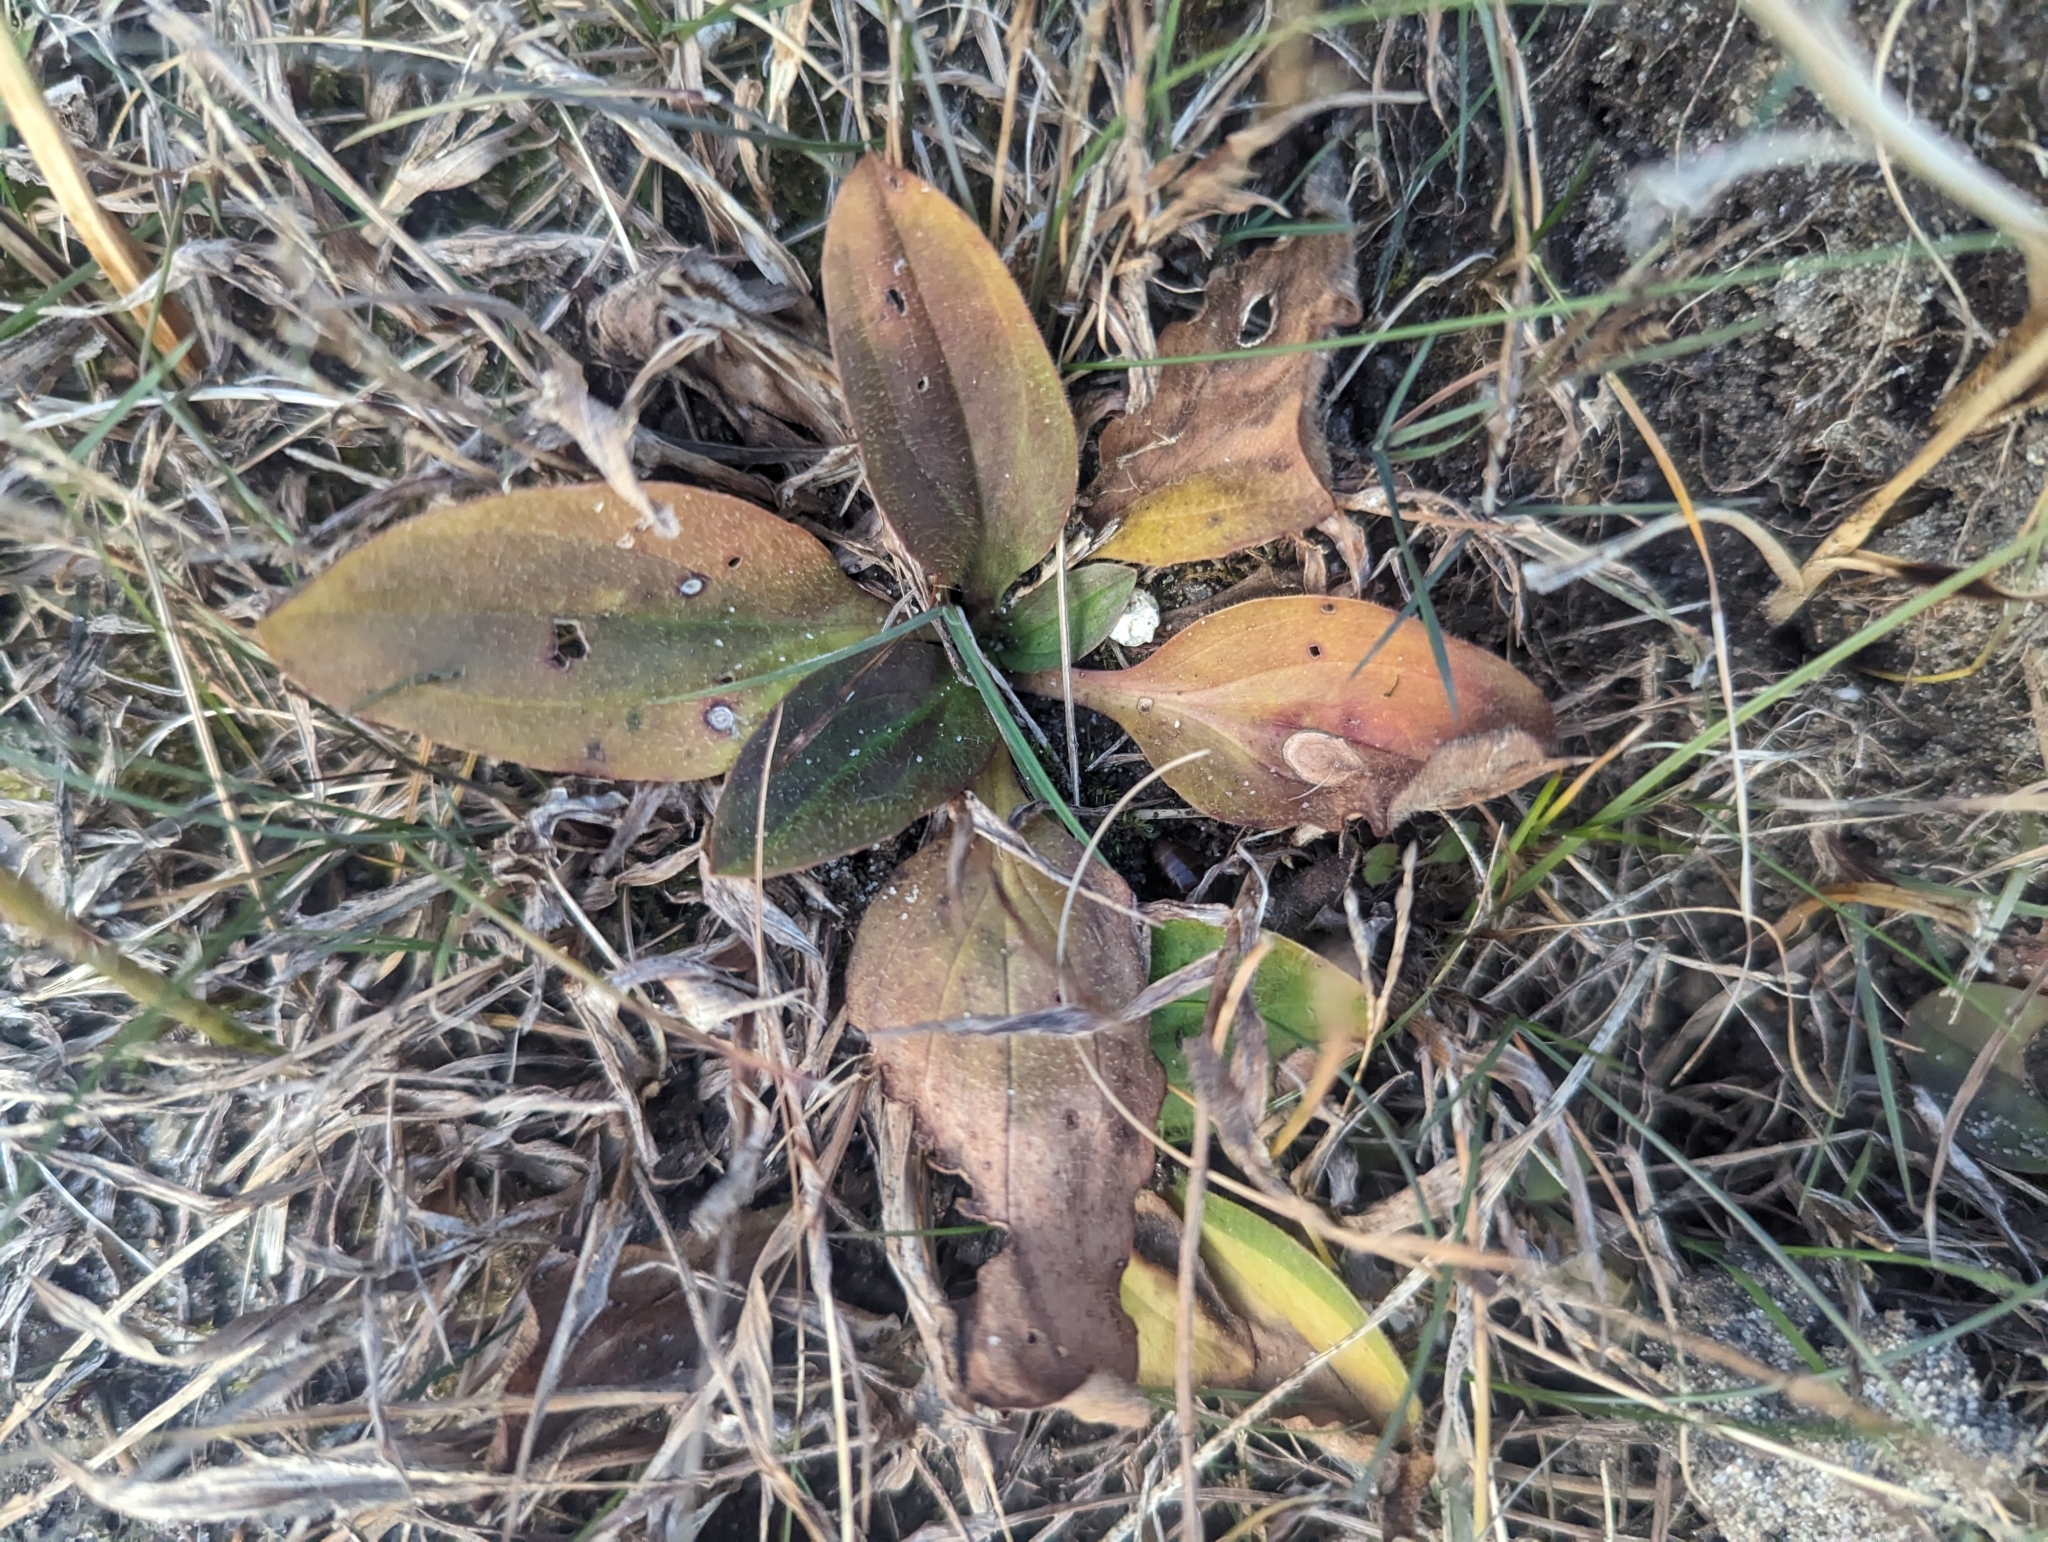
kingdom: Plantae
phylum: Tracheophyta
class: Magnoliopsida
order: Lamiales
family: Plantaginaceae
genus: Plantago
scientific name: Plantago major
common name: Common plantain
